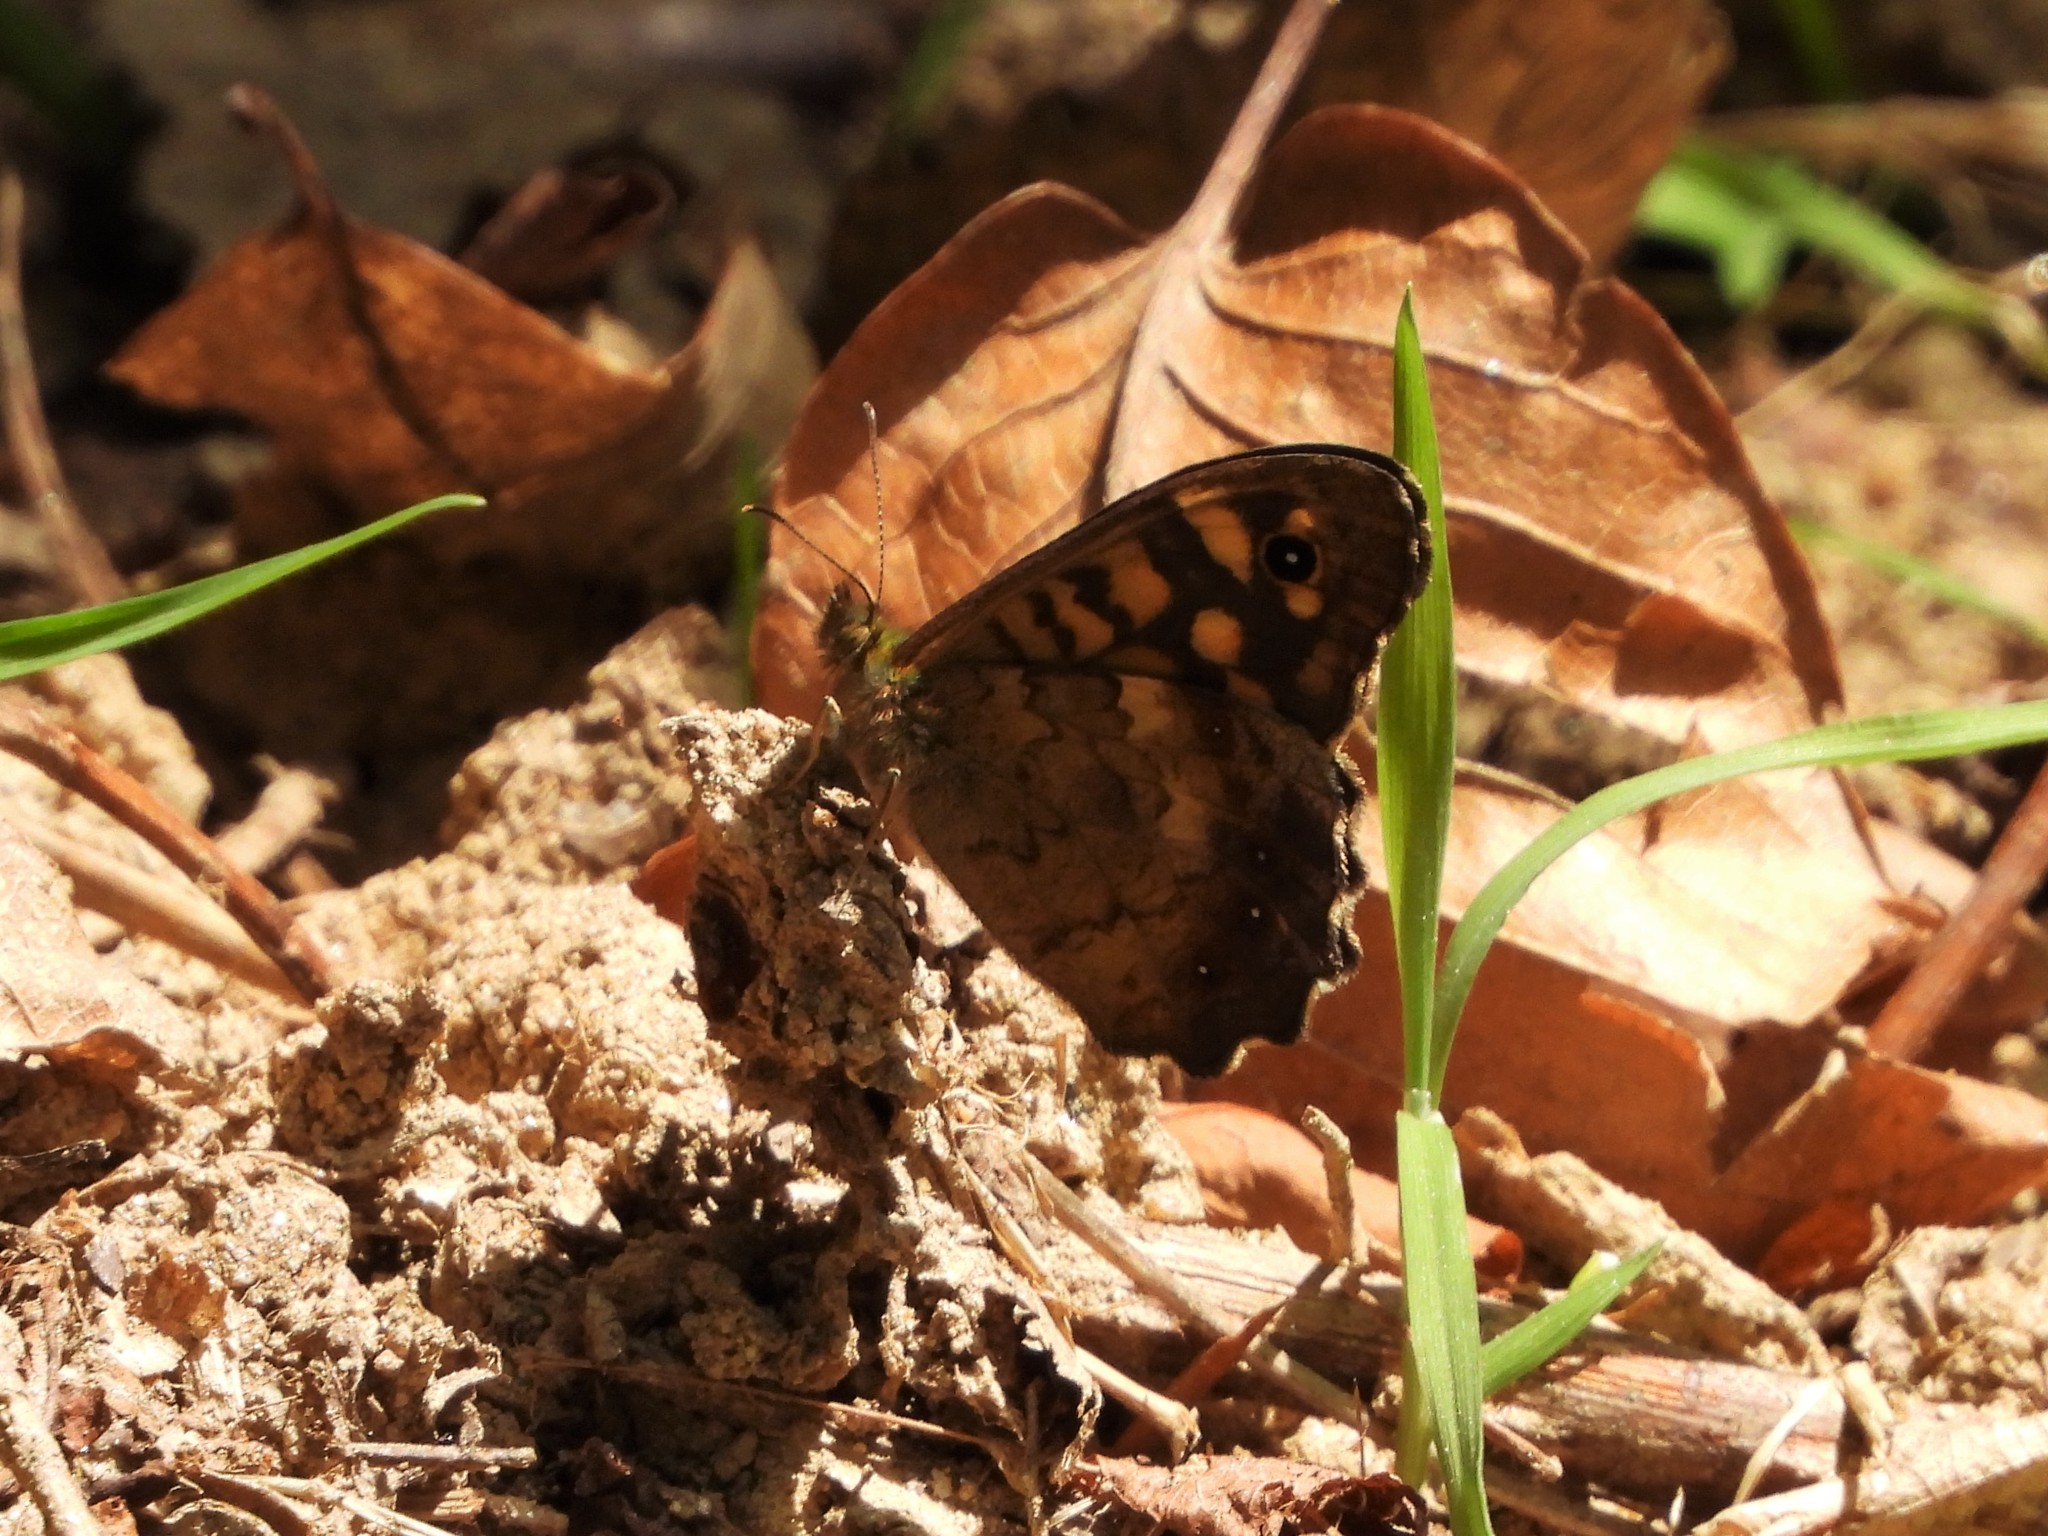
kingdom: Animalia
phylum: Arthropoda
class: Insecta
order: Lepidoptera
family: Nymphalidae
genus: Pararge
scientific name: Pararge aegeria
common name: Speckled wood
